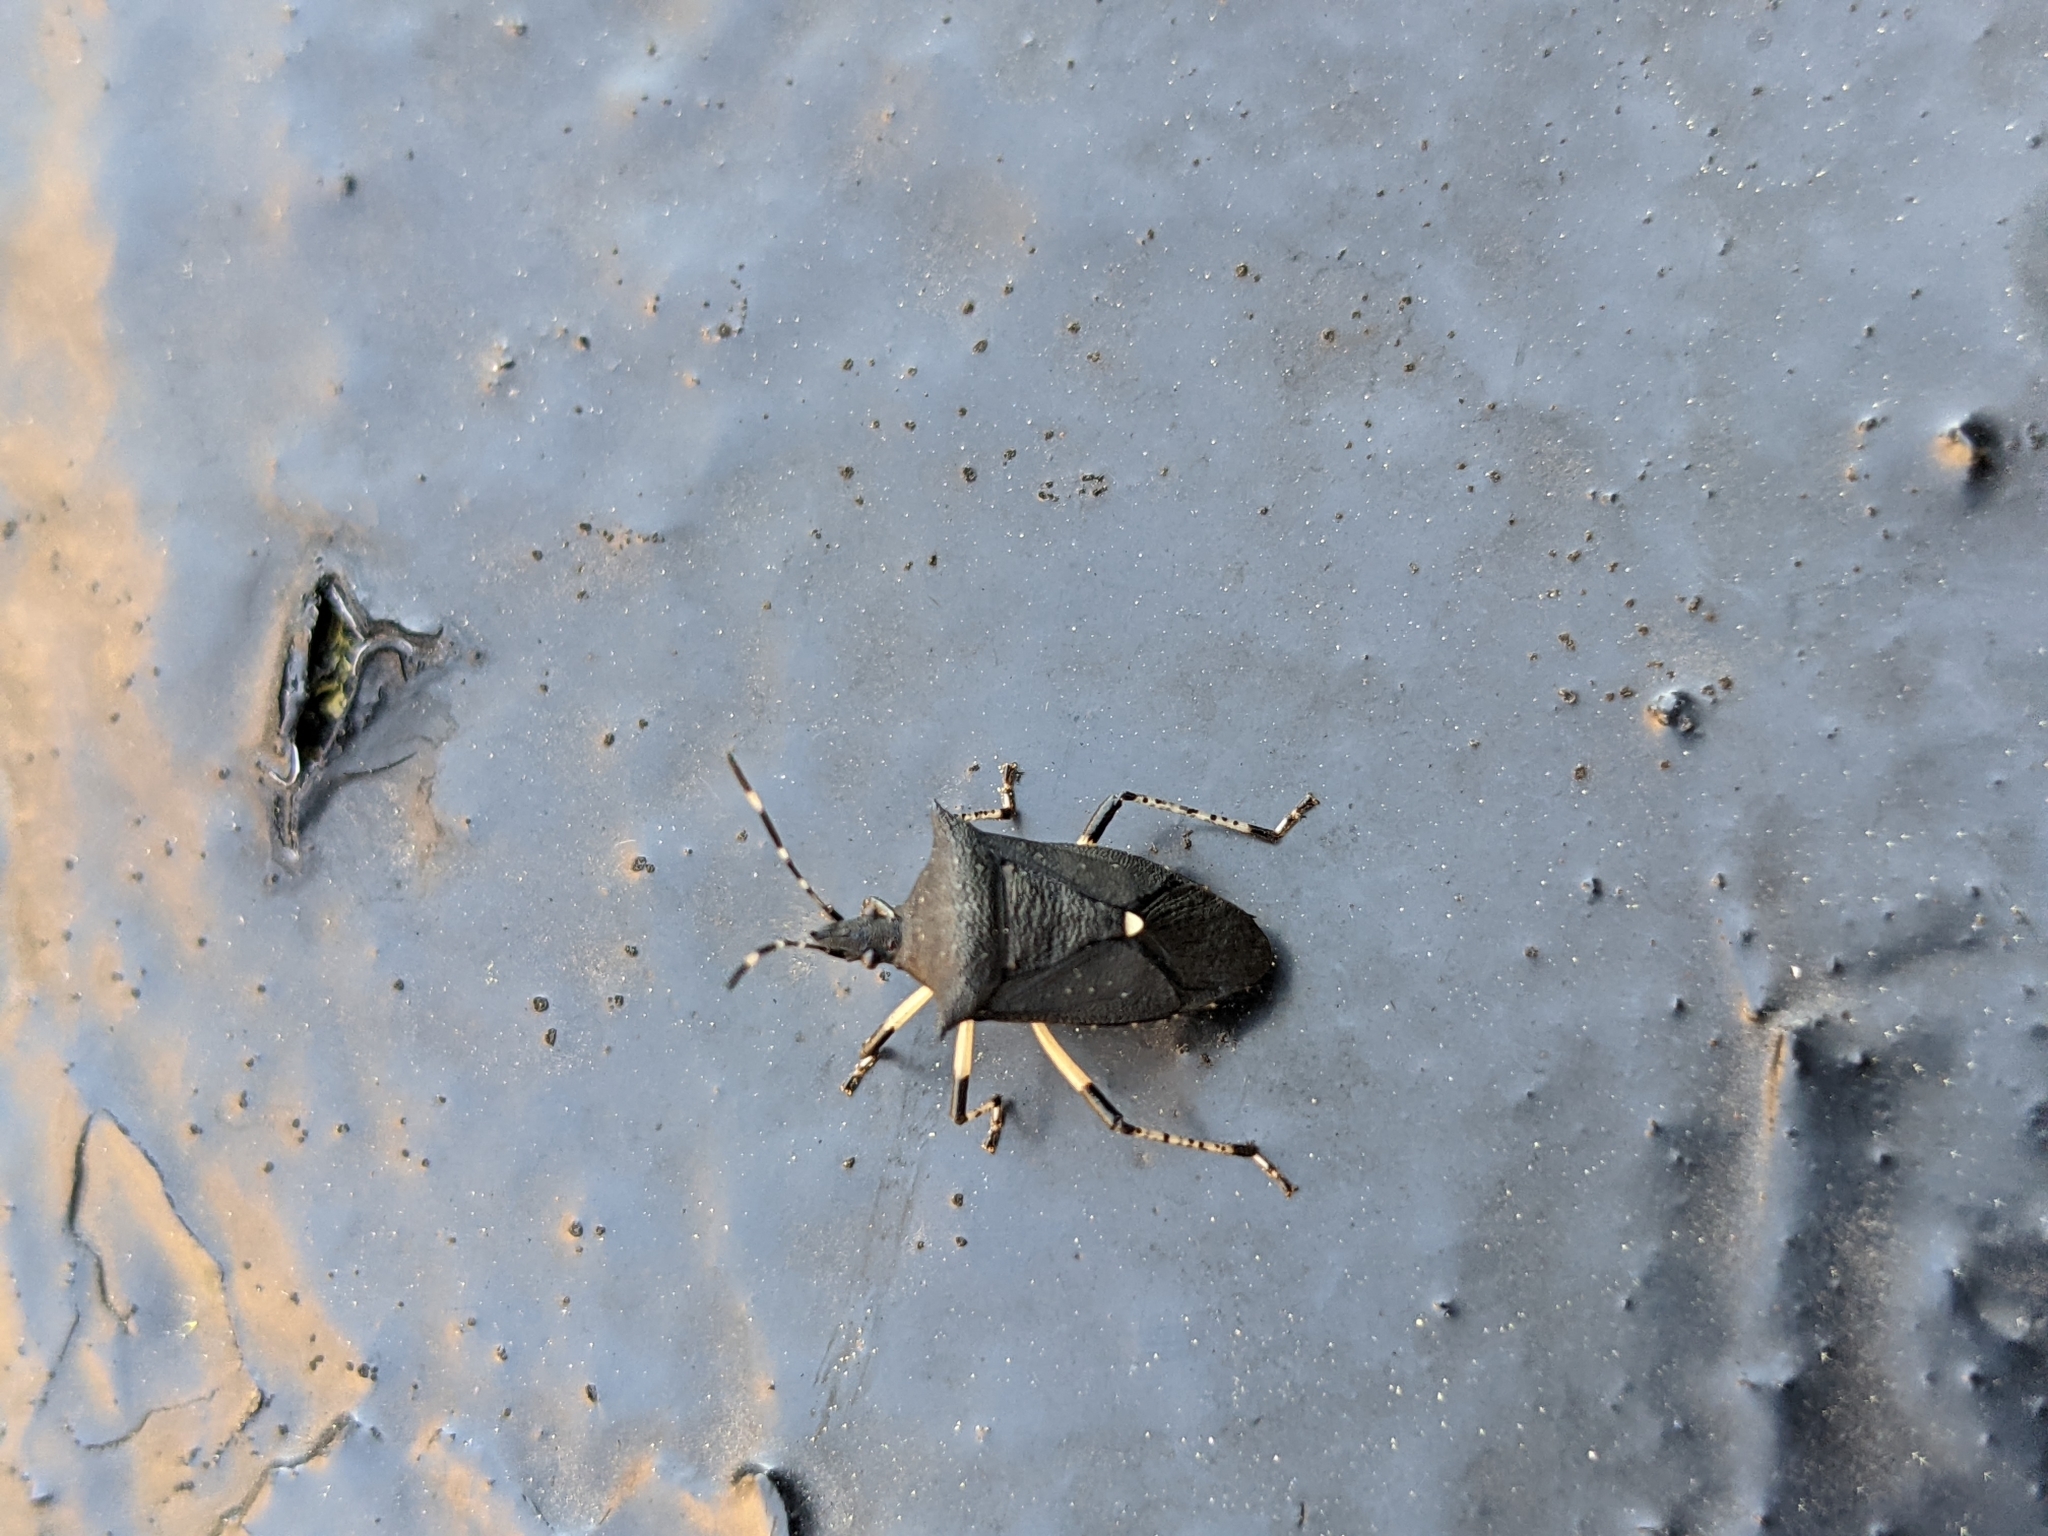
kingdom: Animalia
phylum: Arthropoda
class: Insecta
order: Hemiptera
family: Pentatomidae
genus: Proxys
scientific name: Proxys punctulatus
